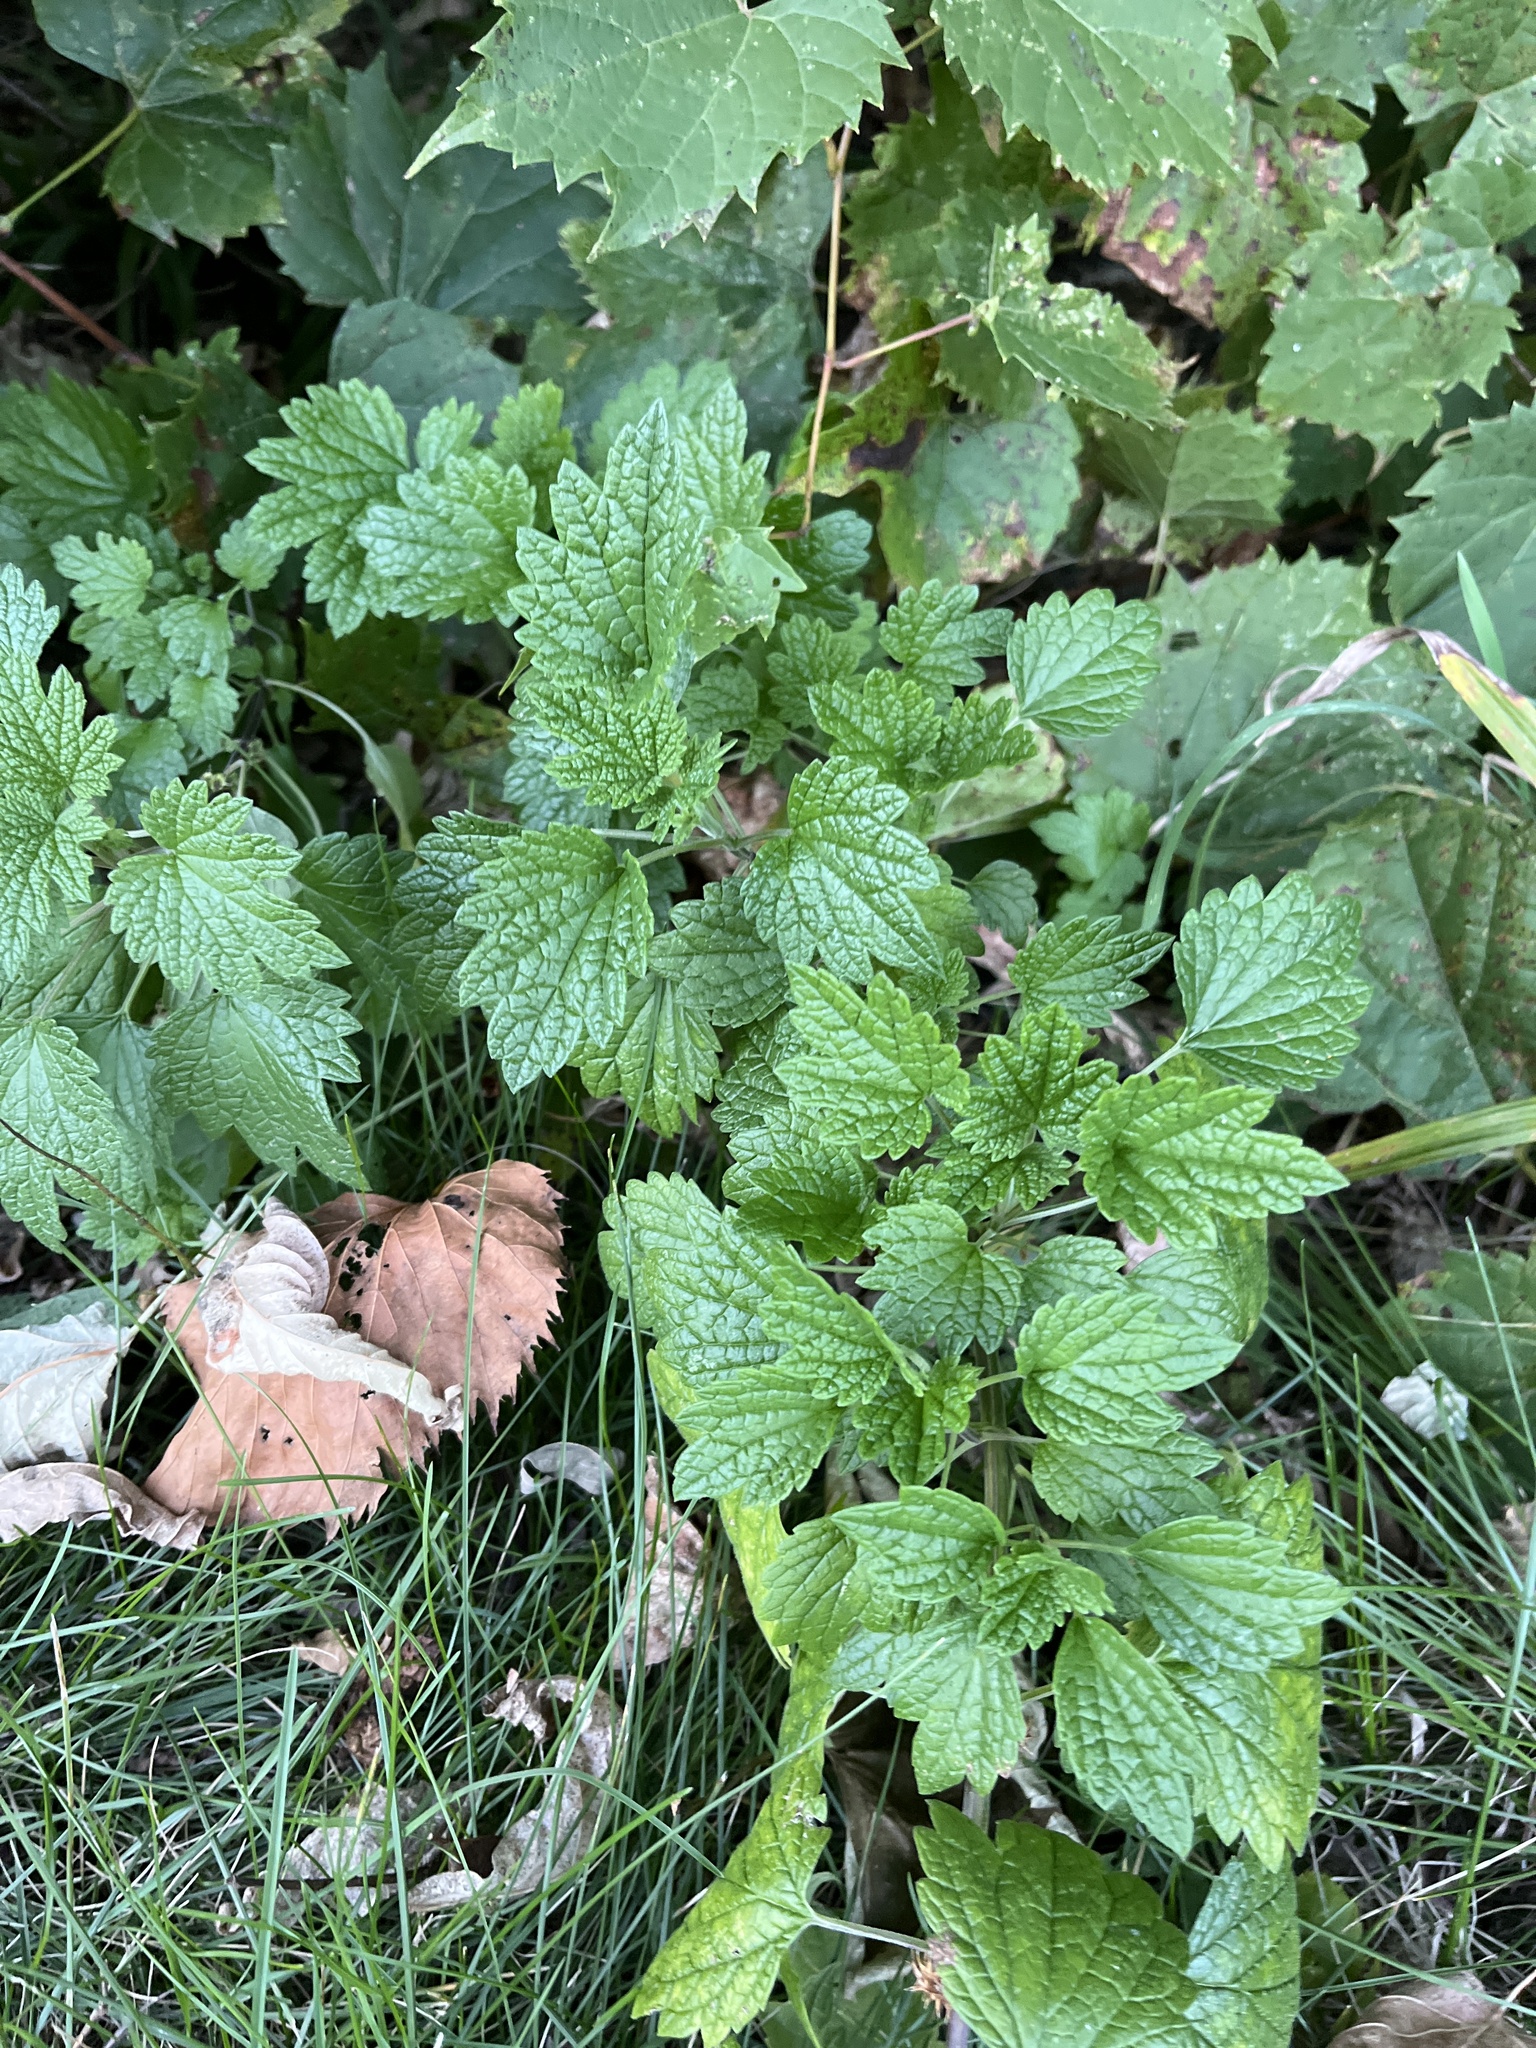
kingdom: Plantae
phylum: Tracheophyta
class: Magnoliopsida
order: Lamiales
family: Lamiaceae
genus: Leonurus
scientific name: Leonurus cardiaca
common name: Motherwort
